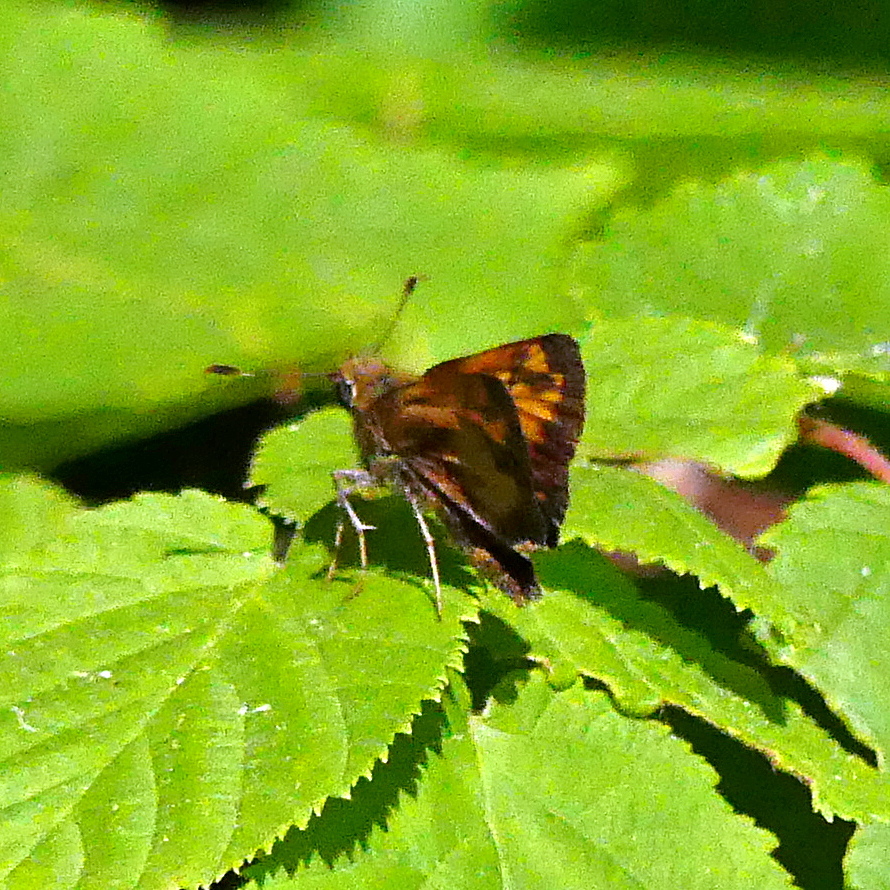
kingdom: Animalia
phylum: Arthropoda
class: Insecta
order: Lepidoptera
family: Hesperiidae
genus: Lon
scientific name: Lon hobomok
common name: Hobomok skipper
